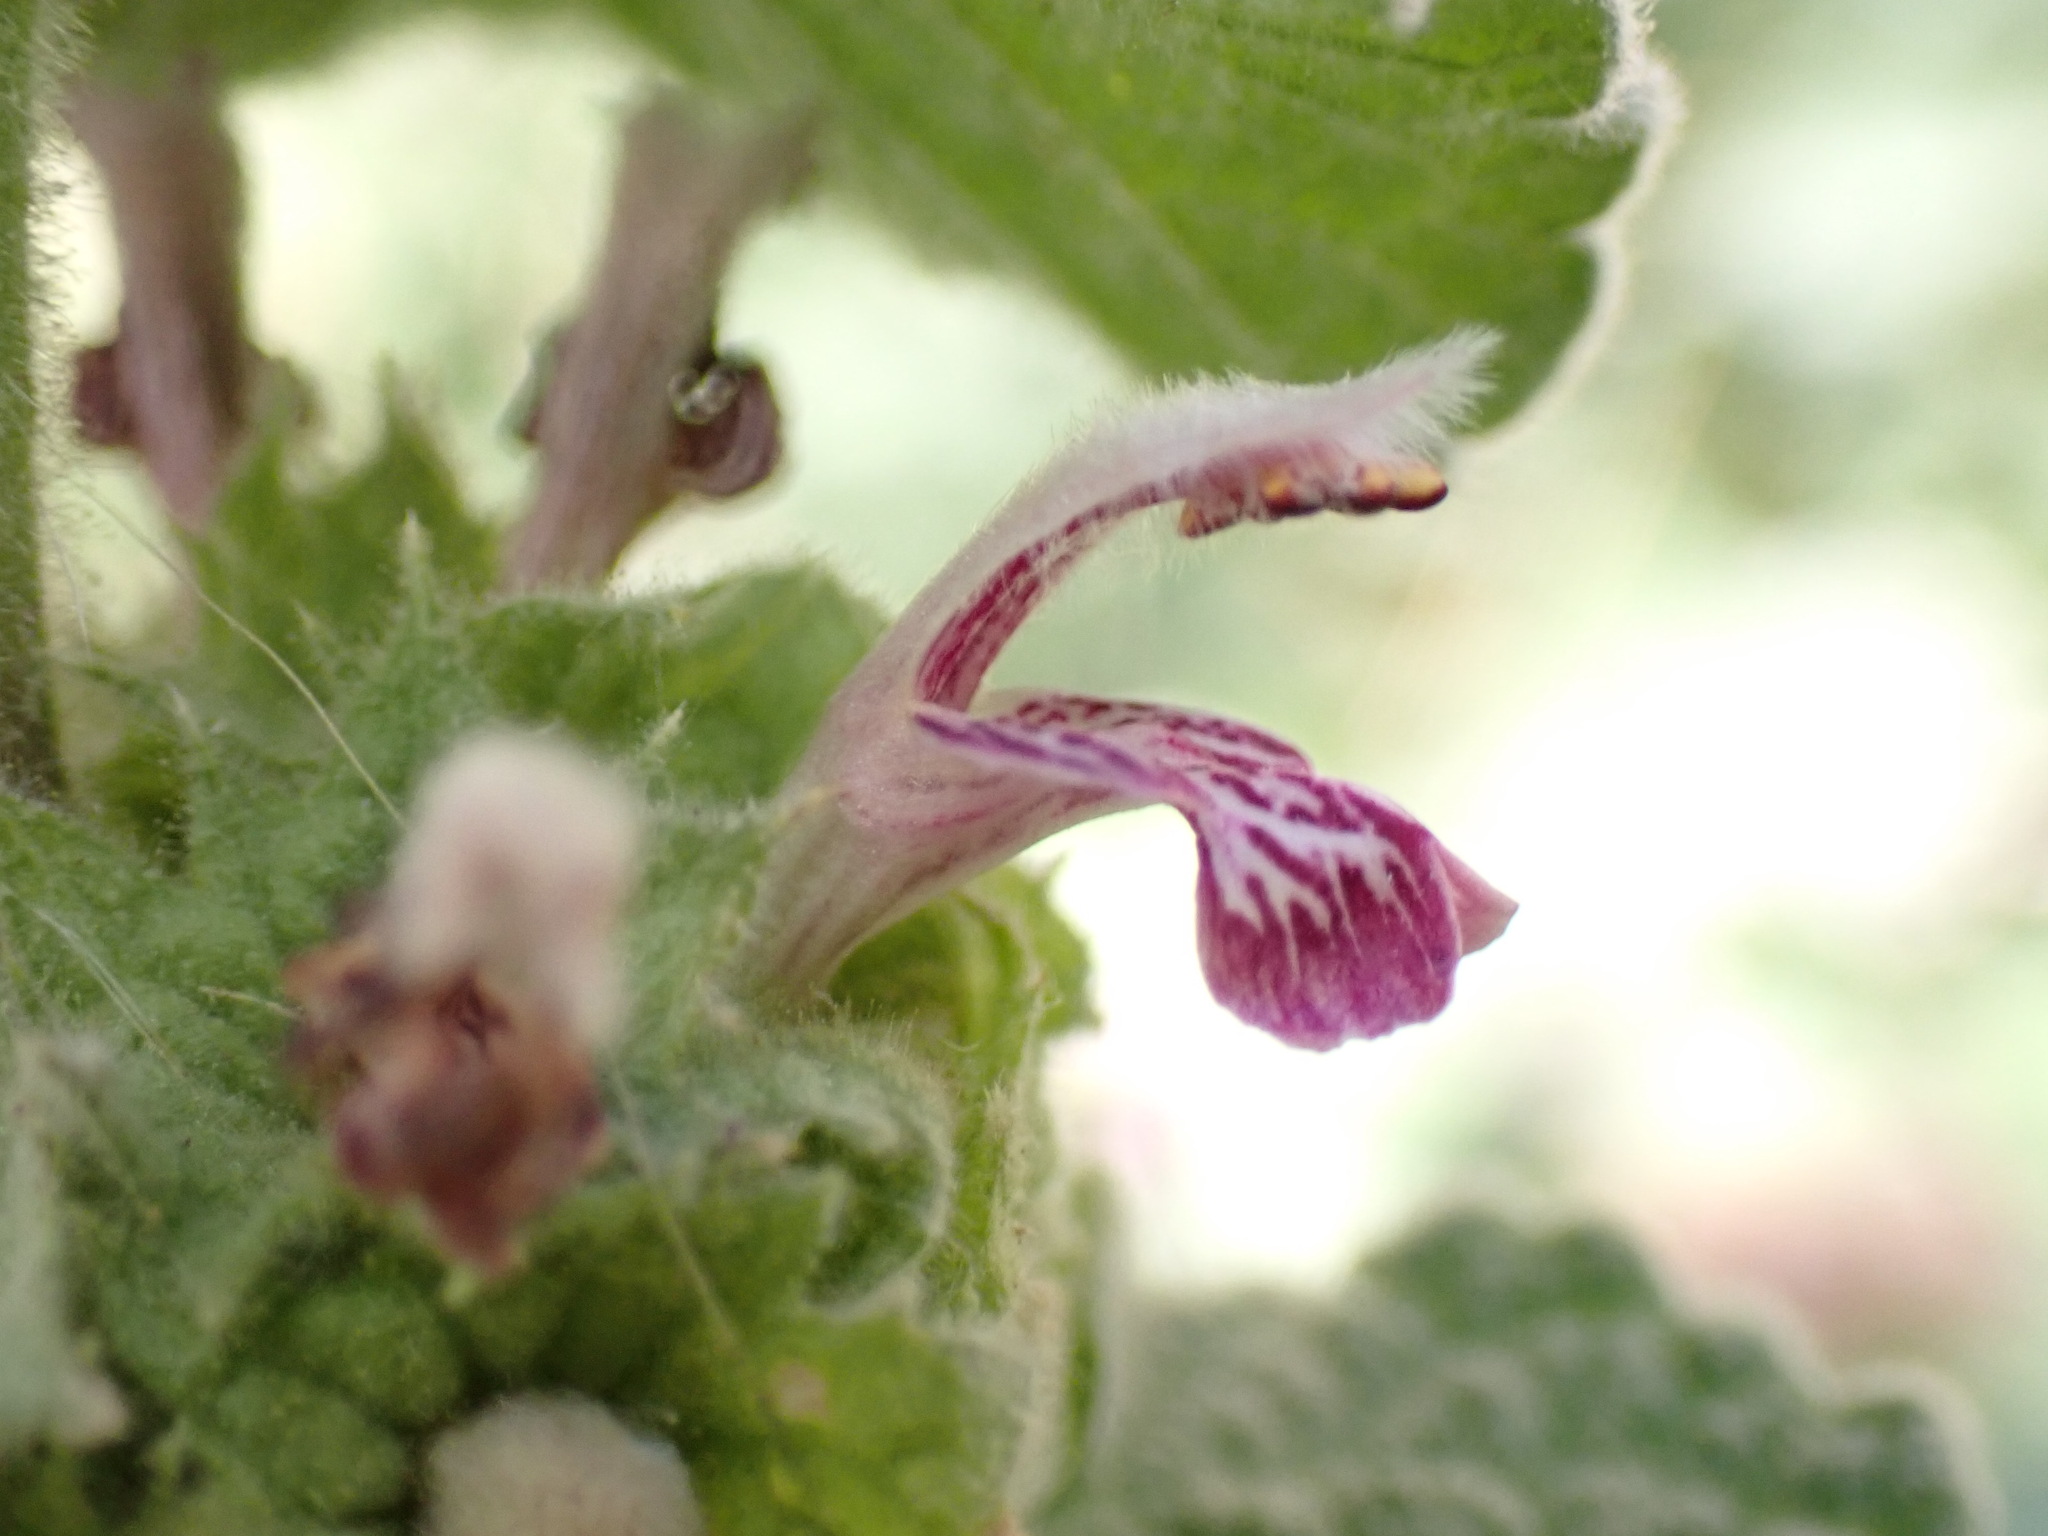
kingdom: Plantae
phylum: Tracheophyta
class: Magnoliopsida
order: Lamiales
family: Lamiaceae
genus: Pseudodictamnus
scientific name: Pseudodictamnus hirsutus
